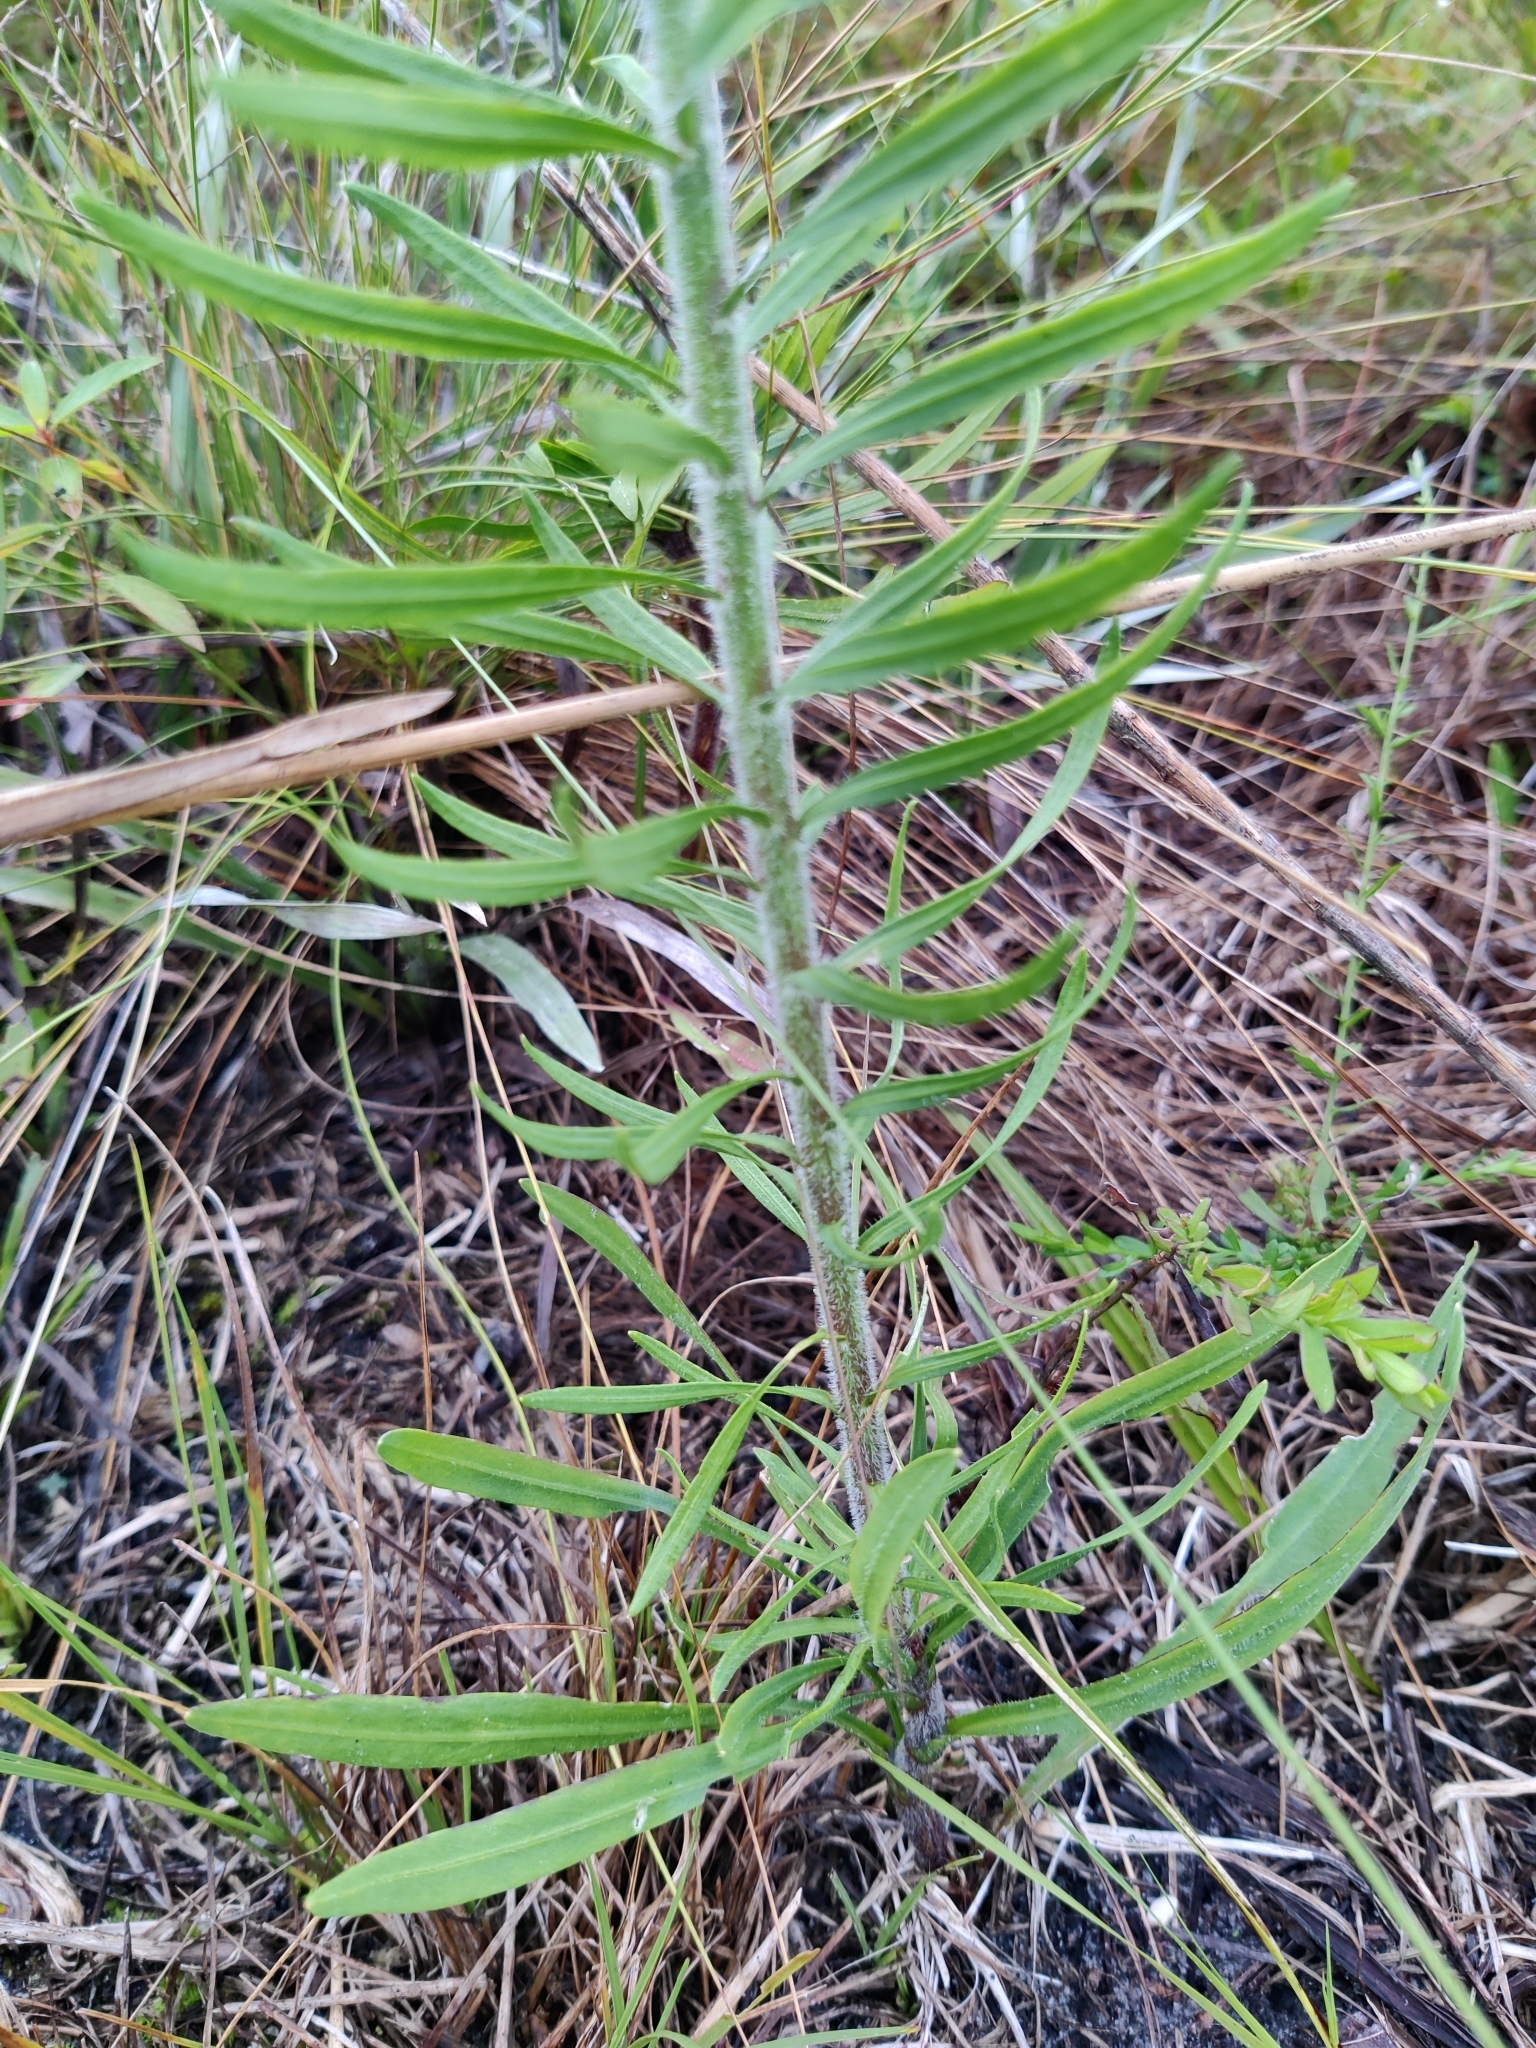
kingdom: Plantae
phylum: Tracheophyta
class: Magnoliopsida
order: Asterales
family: Asteraceae
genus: Liatris
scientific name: Liatris gracilis
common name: Slender gayfeather
